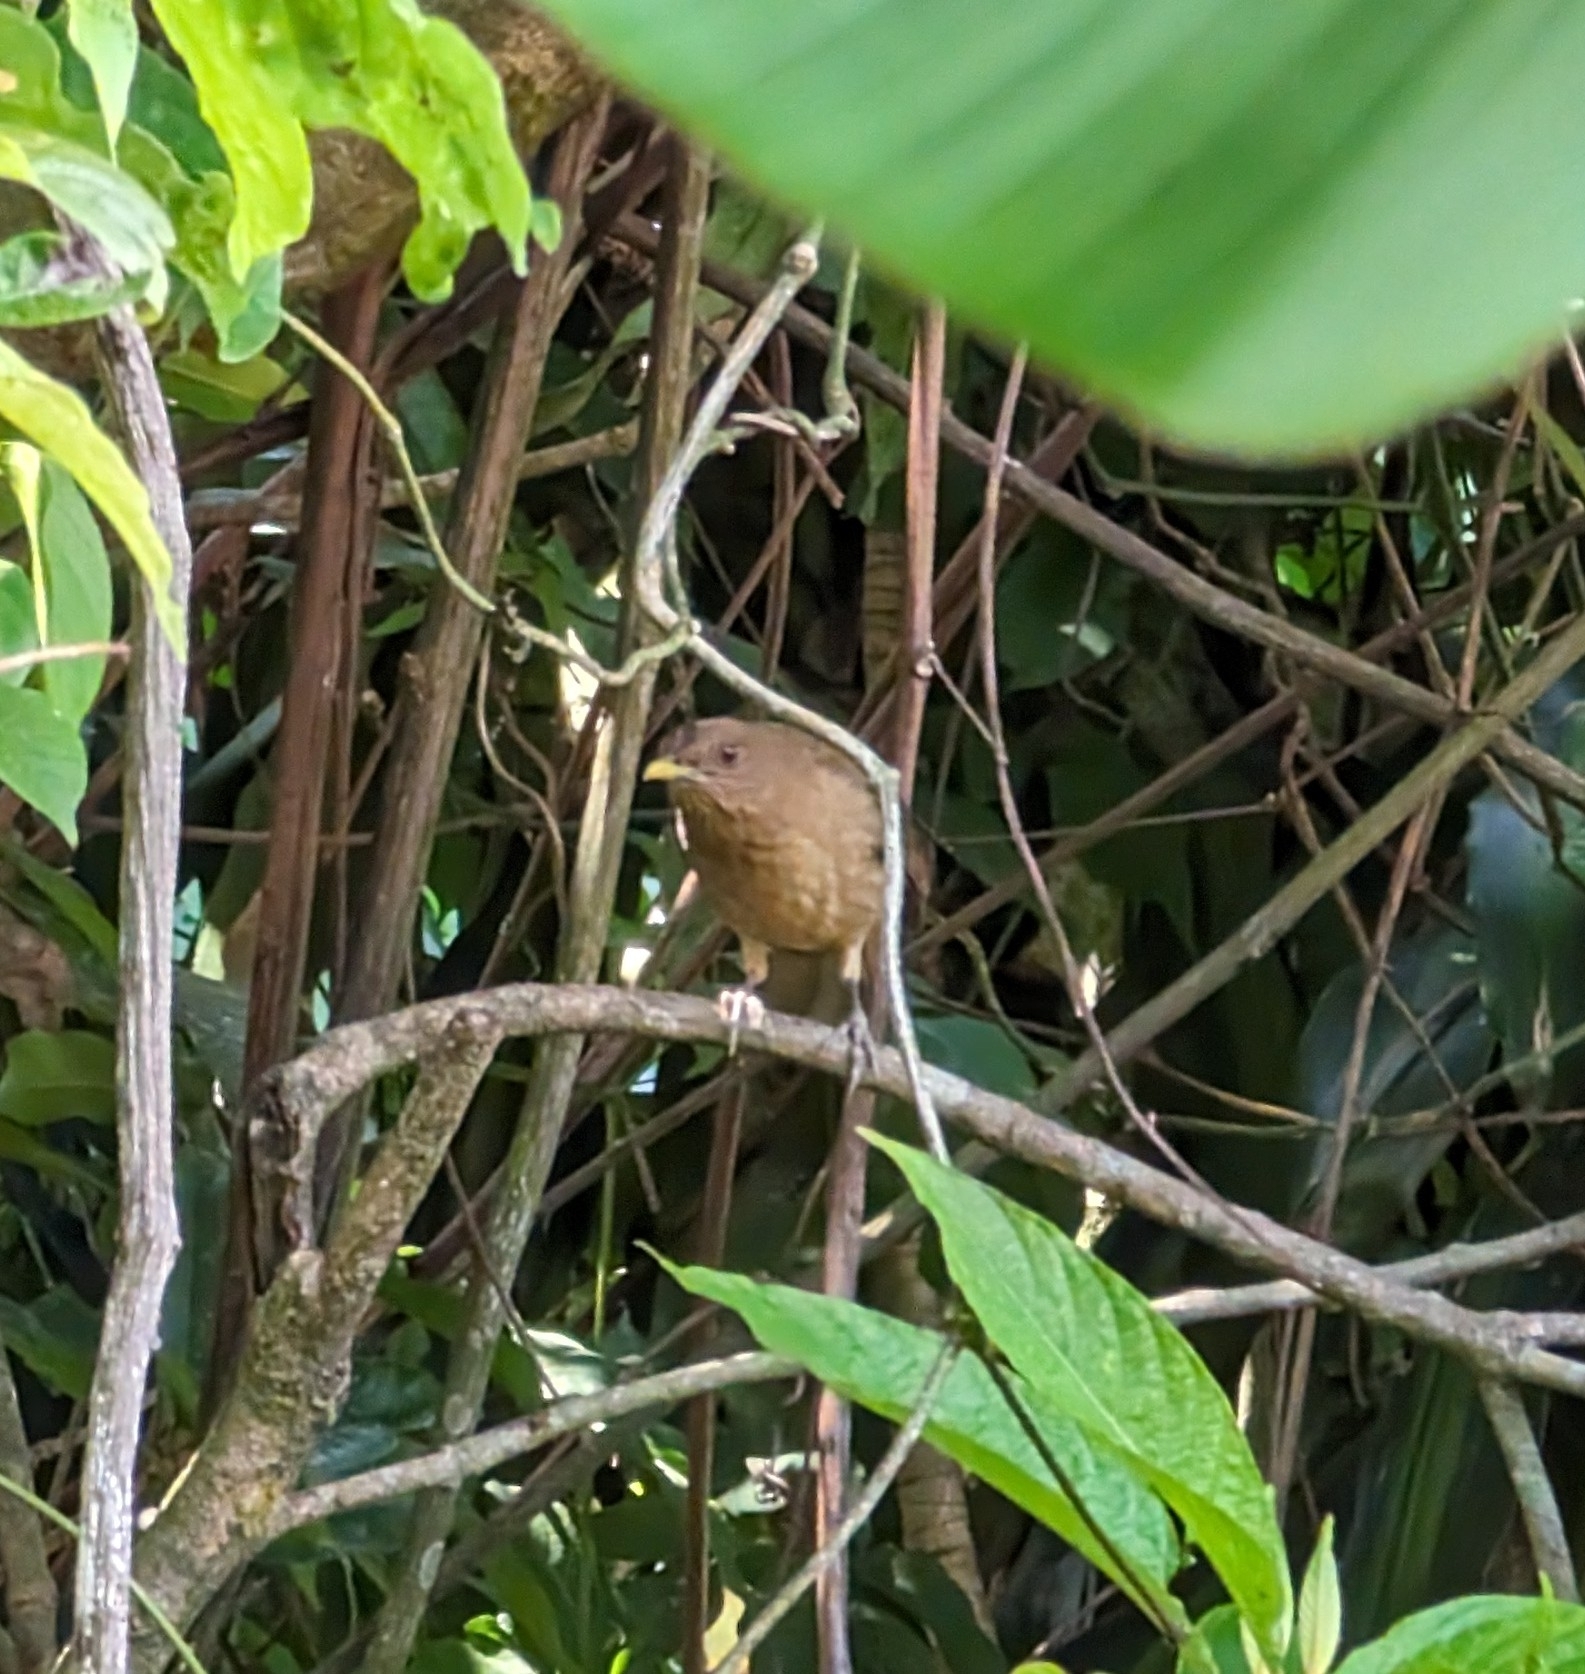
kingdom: Animalia
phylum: Chordata
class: Aves
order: Passeriformes
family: Turdidae
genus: Turdus
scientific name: Turdus grayi
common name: Clay-colored thrush
